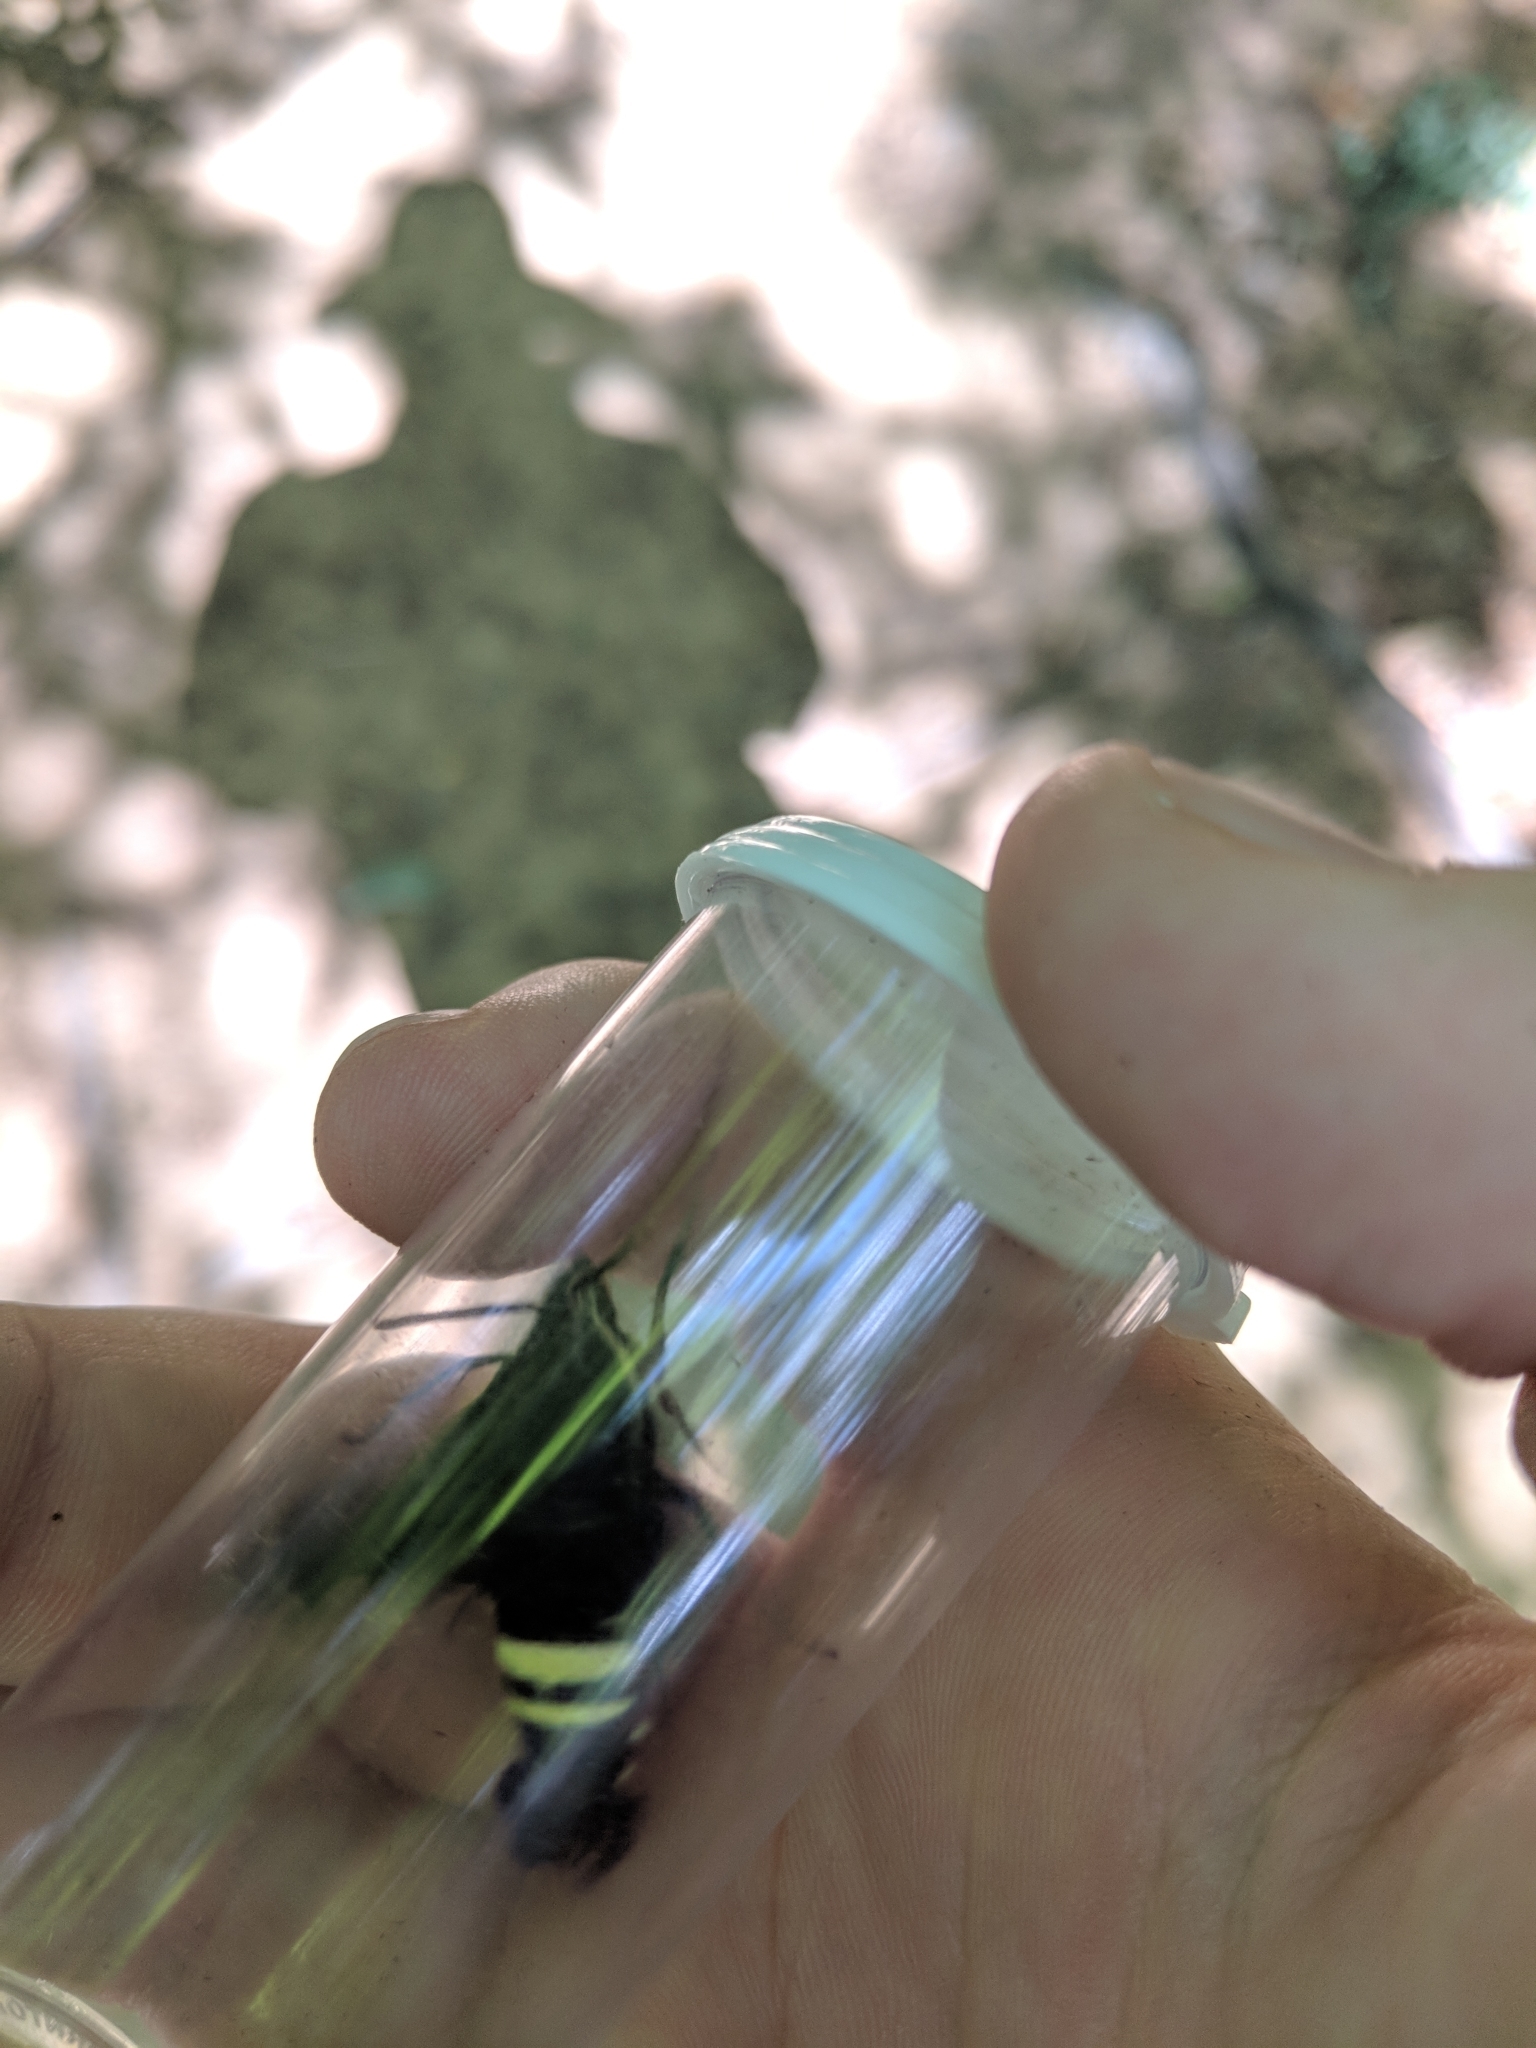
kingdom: Animalia
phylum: Arthropoda
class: Insecta
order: Lepidoptera
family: Sphingidae
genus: Amphion
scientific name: Amphion floridensis
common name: Nessus sphinx
